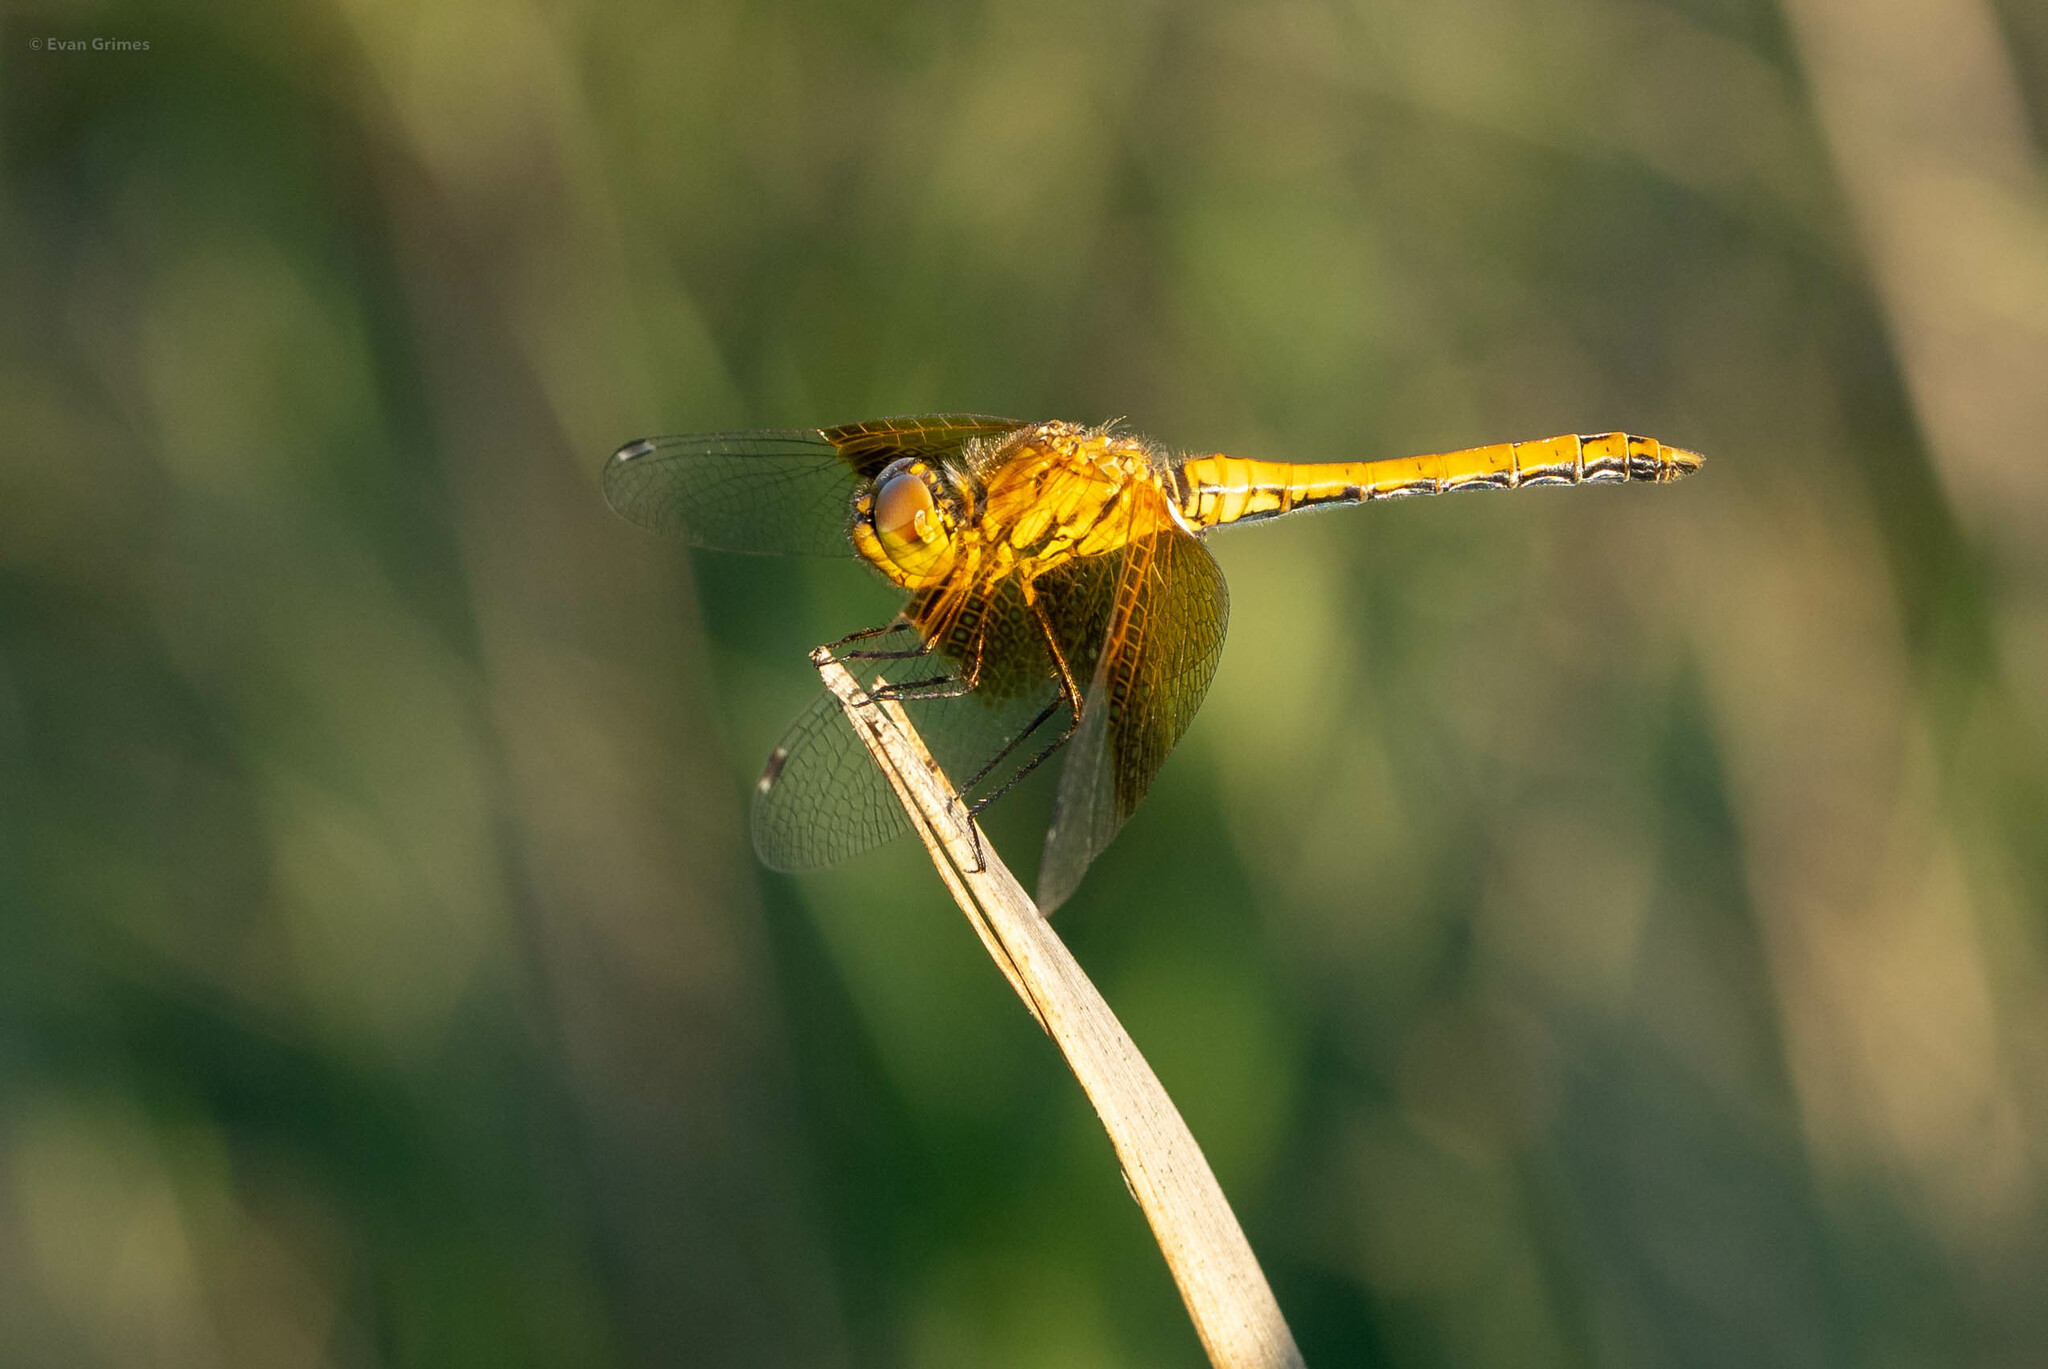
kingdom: Animalia
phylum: Arthropoda
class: Insecta
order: Odonata
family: Libellulidae
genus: Sympetrum
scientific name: Sympetrum semicinctum
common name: Band-winged meadowhawk
